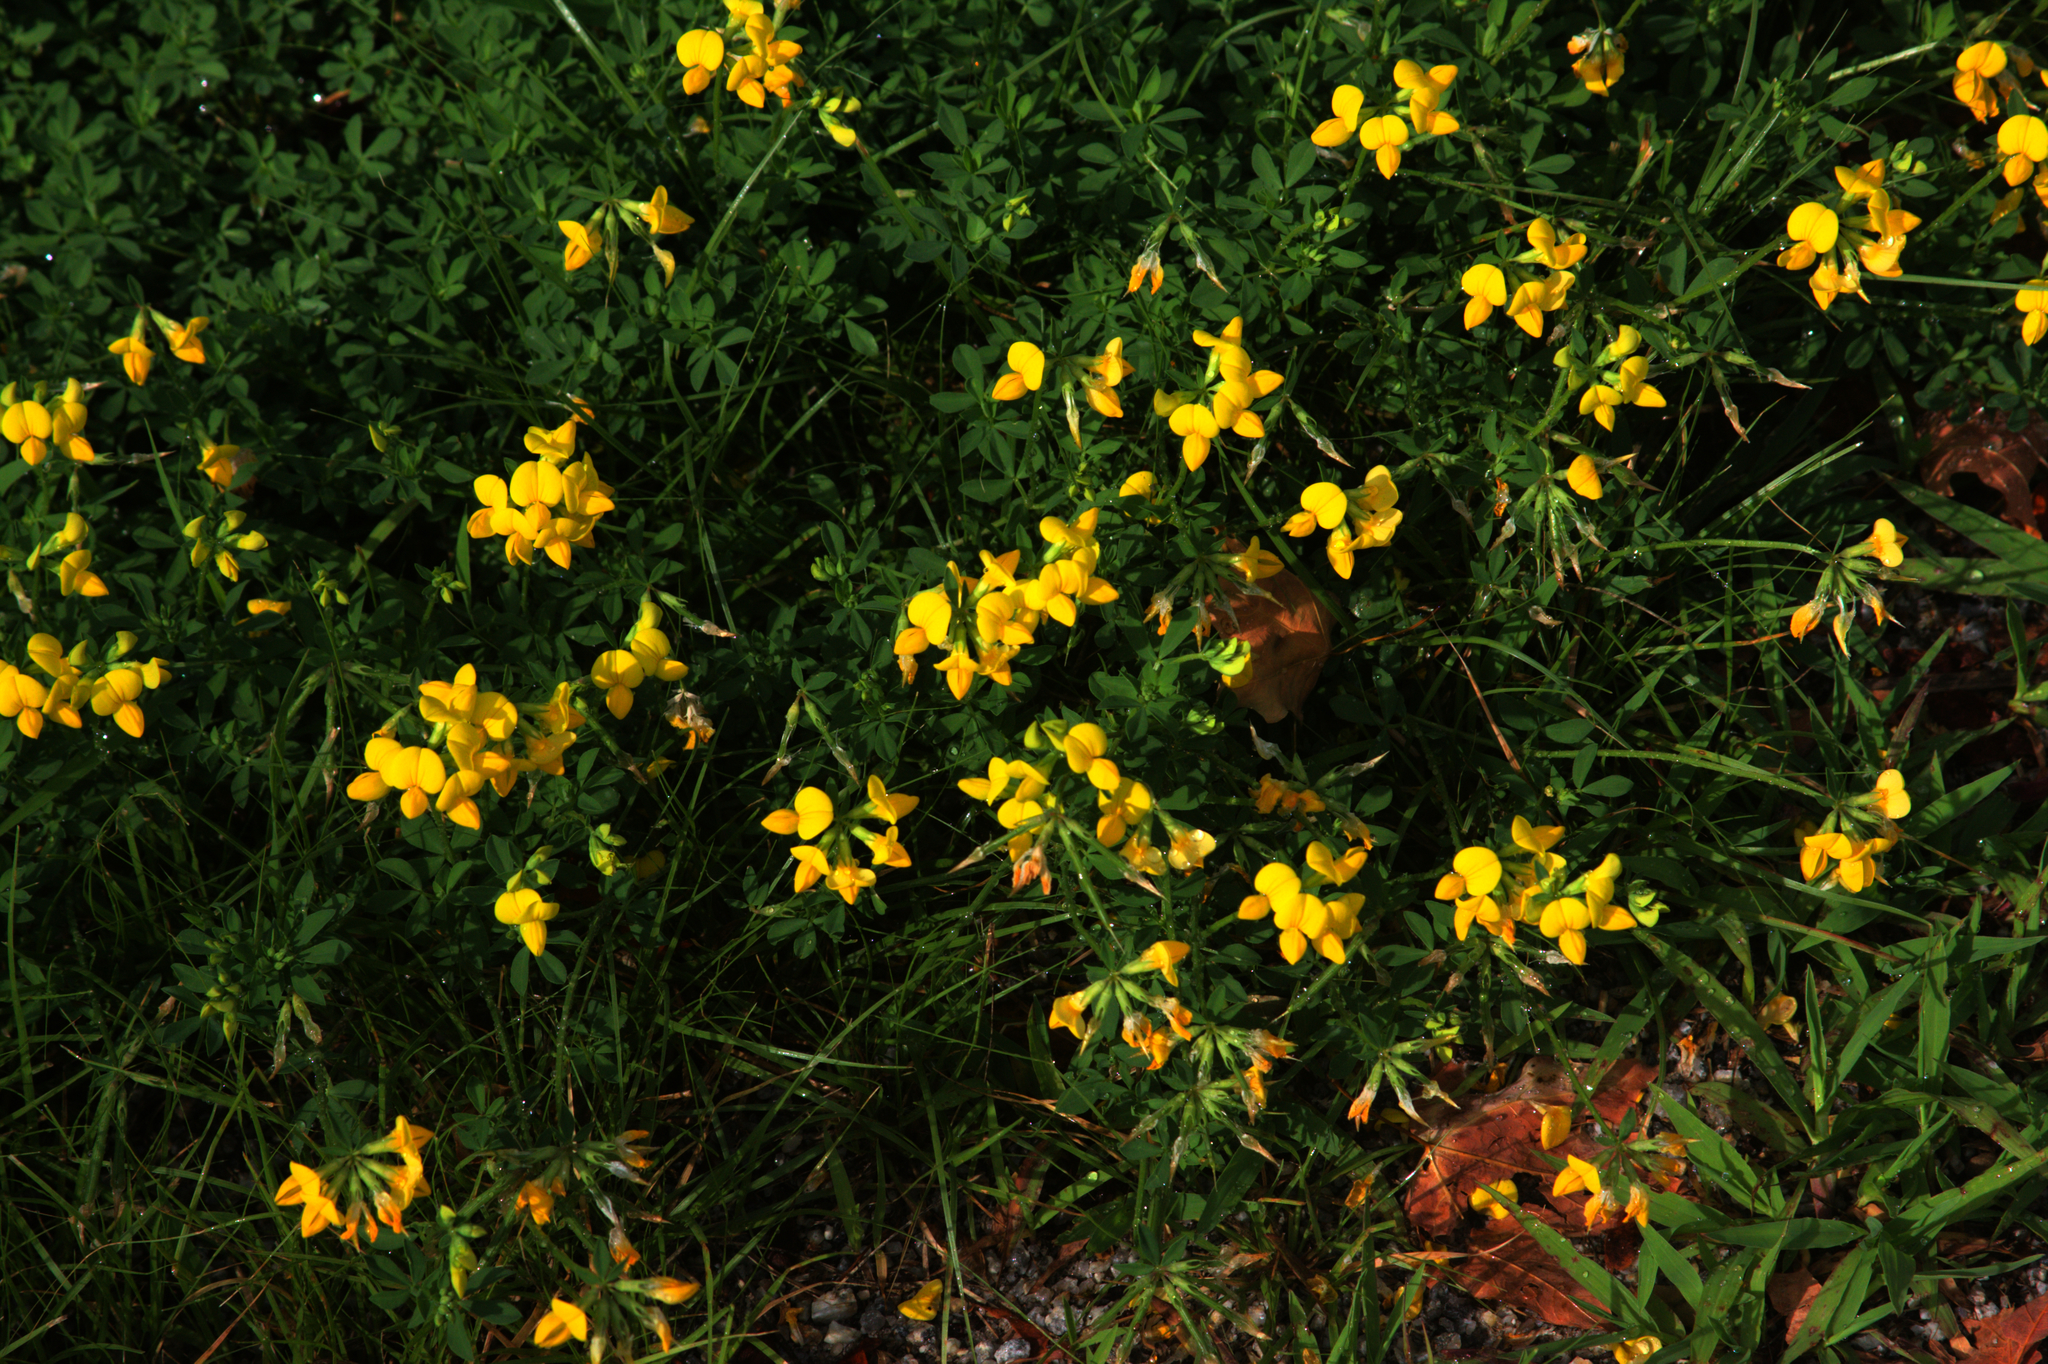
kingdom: Plantae
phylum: Tracheophyta
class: Magnoliopsida
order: Fabales
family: Fabaceae
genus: Lotus
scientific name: Lotus corniculatus
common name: Common bird's-foot-trefoil
